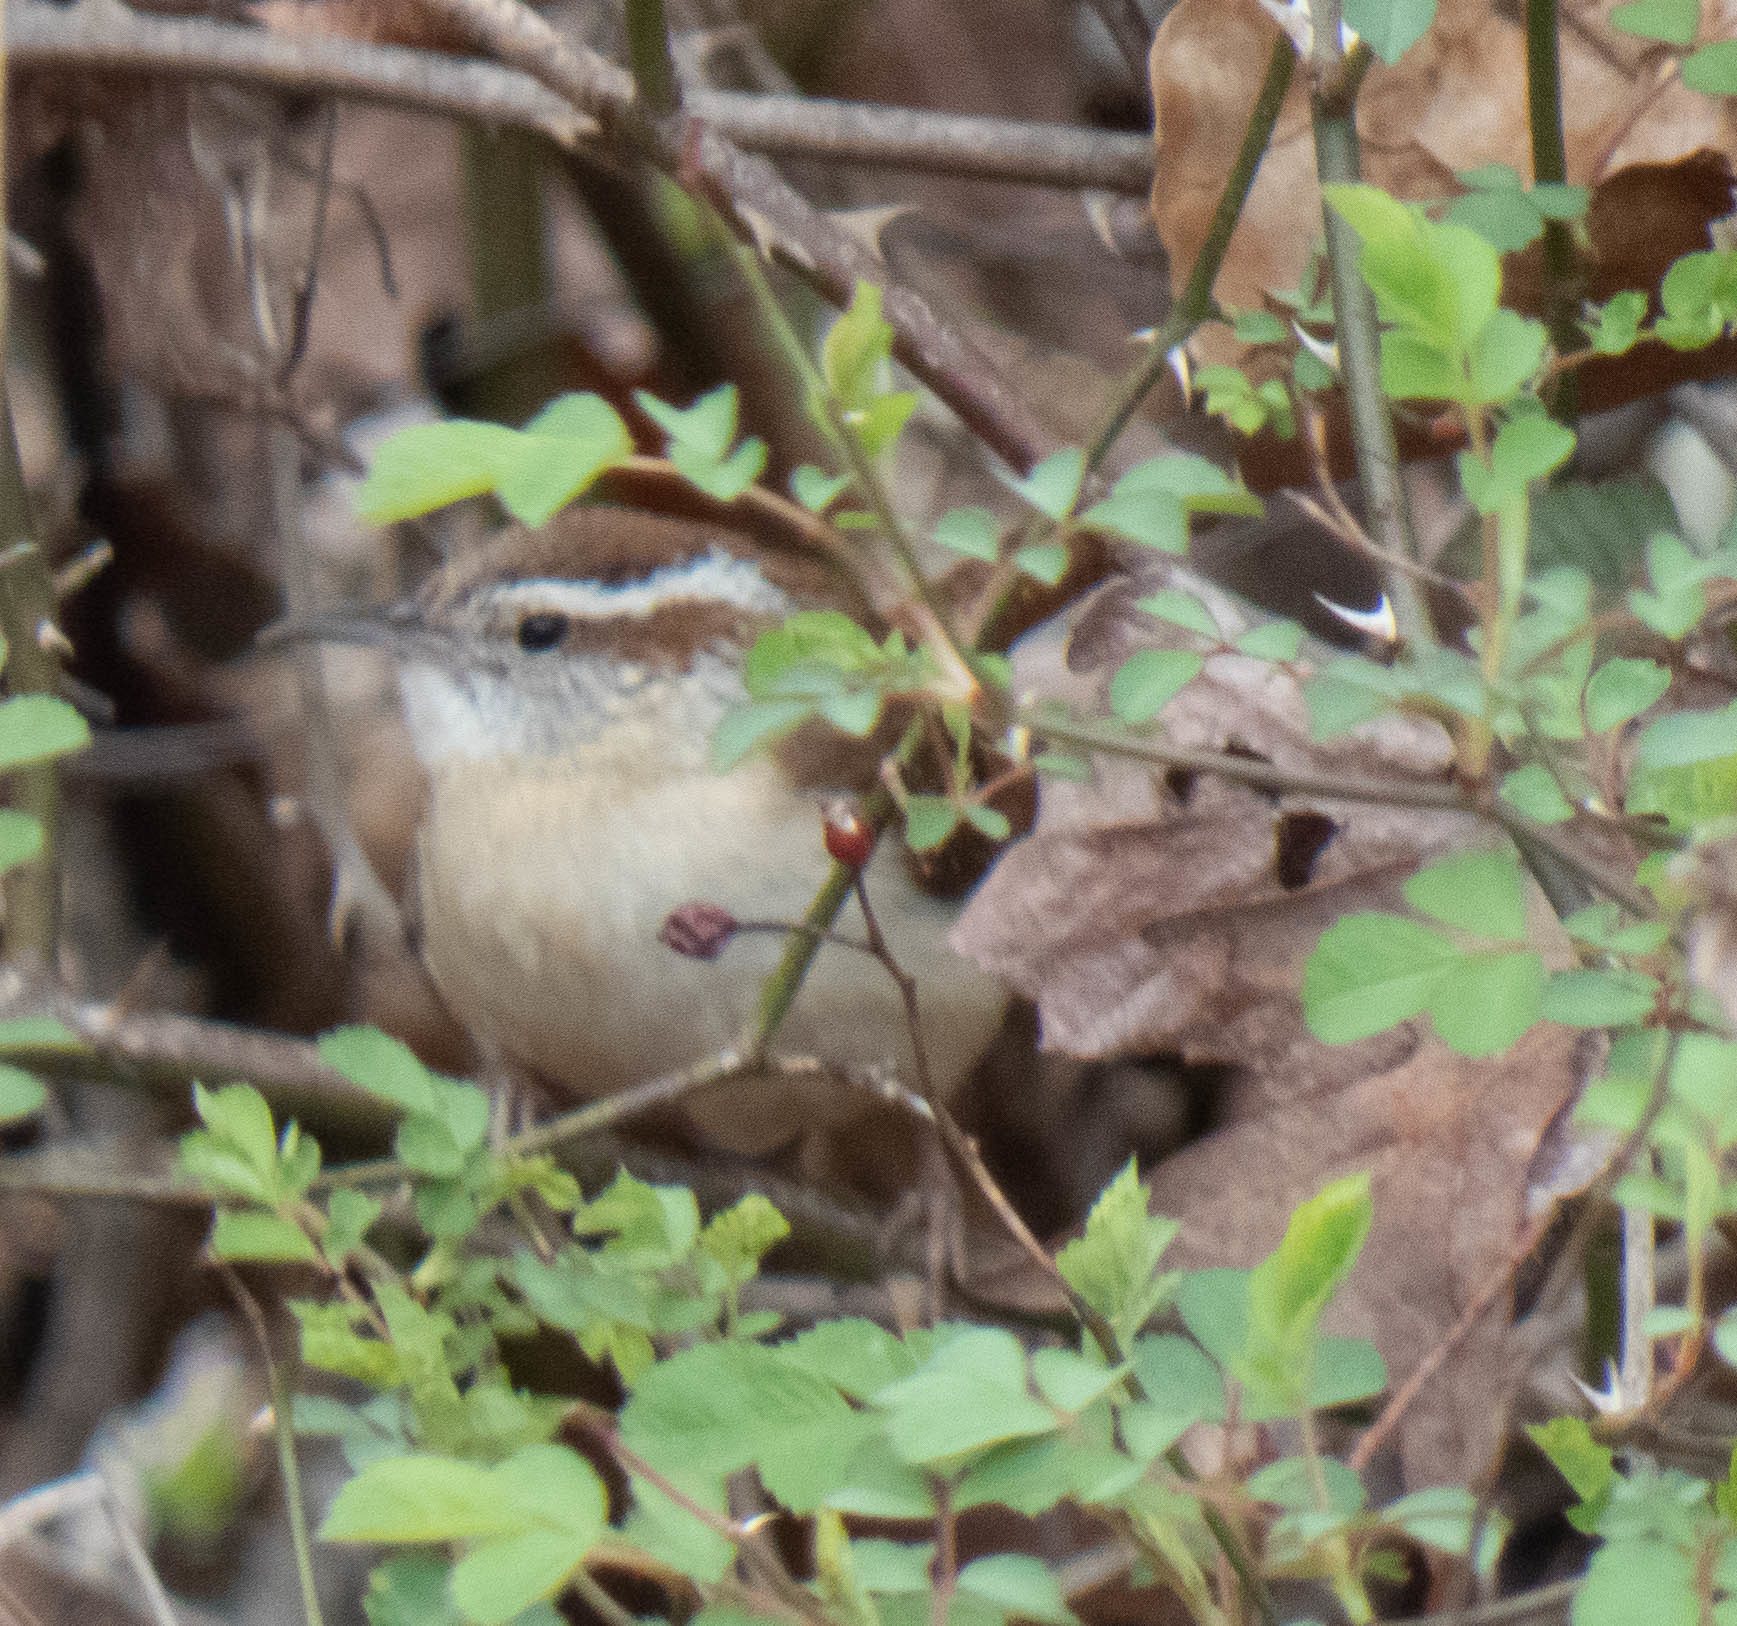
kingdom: Animalia
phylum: Chordata
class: Aves
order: Passeriformes
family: Troglodytidae
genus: Thryothorus
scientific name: Thryothorus ludovicianus
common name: Carolina wren
